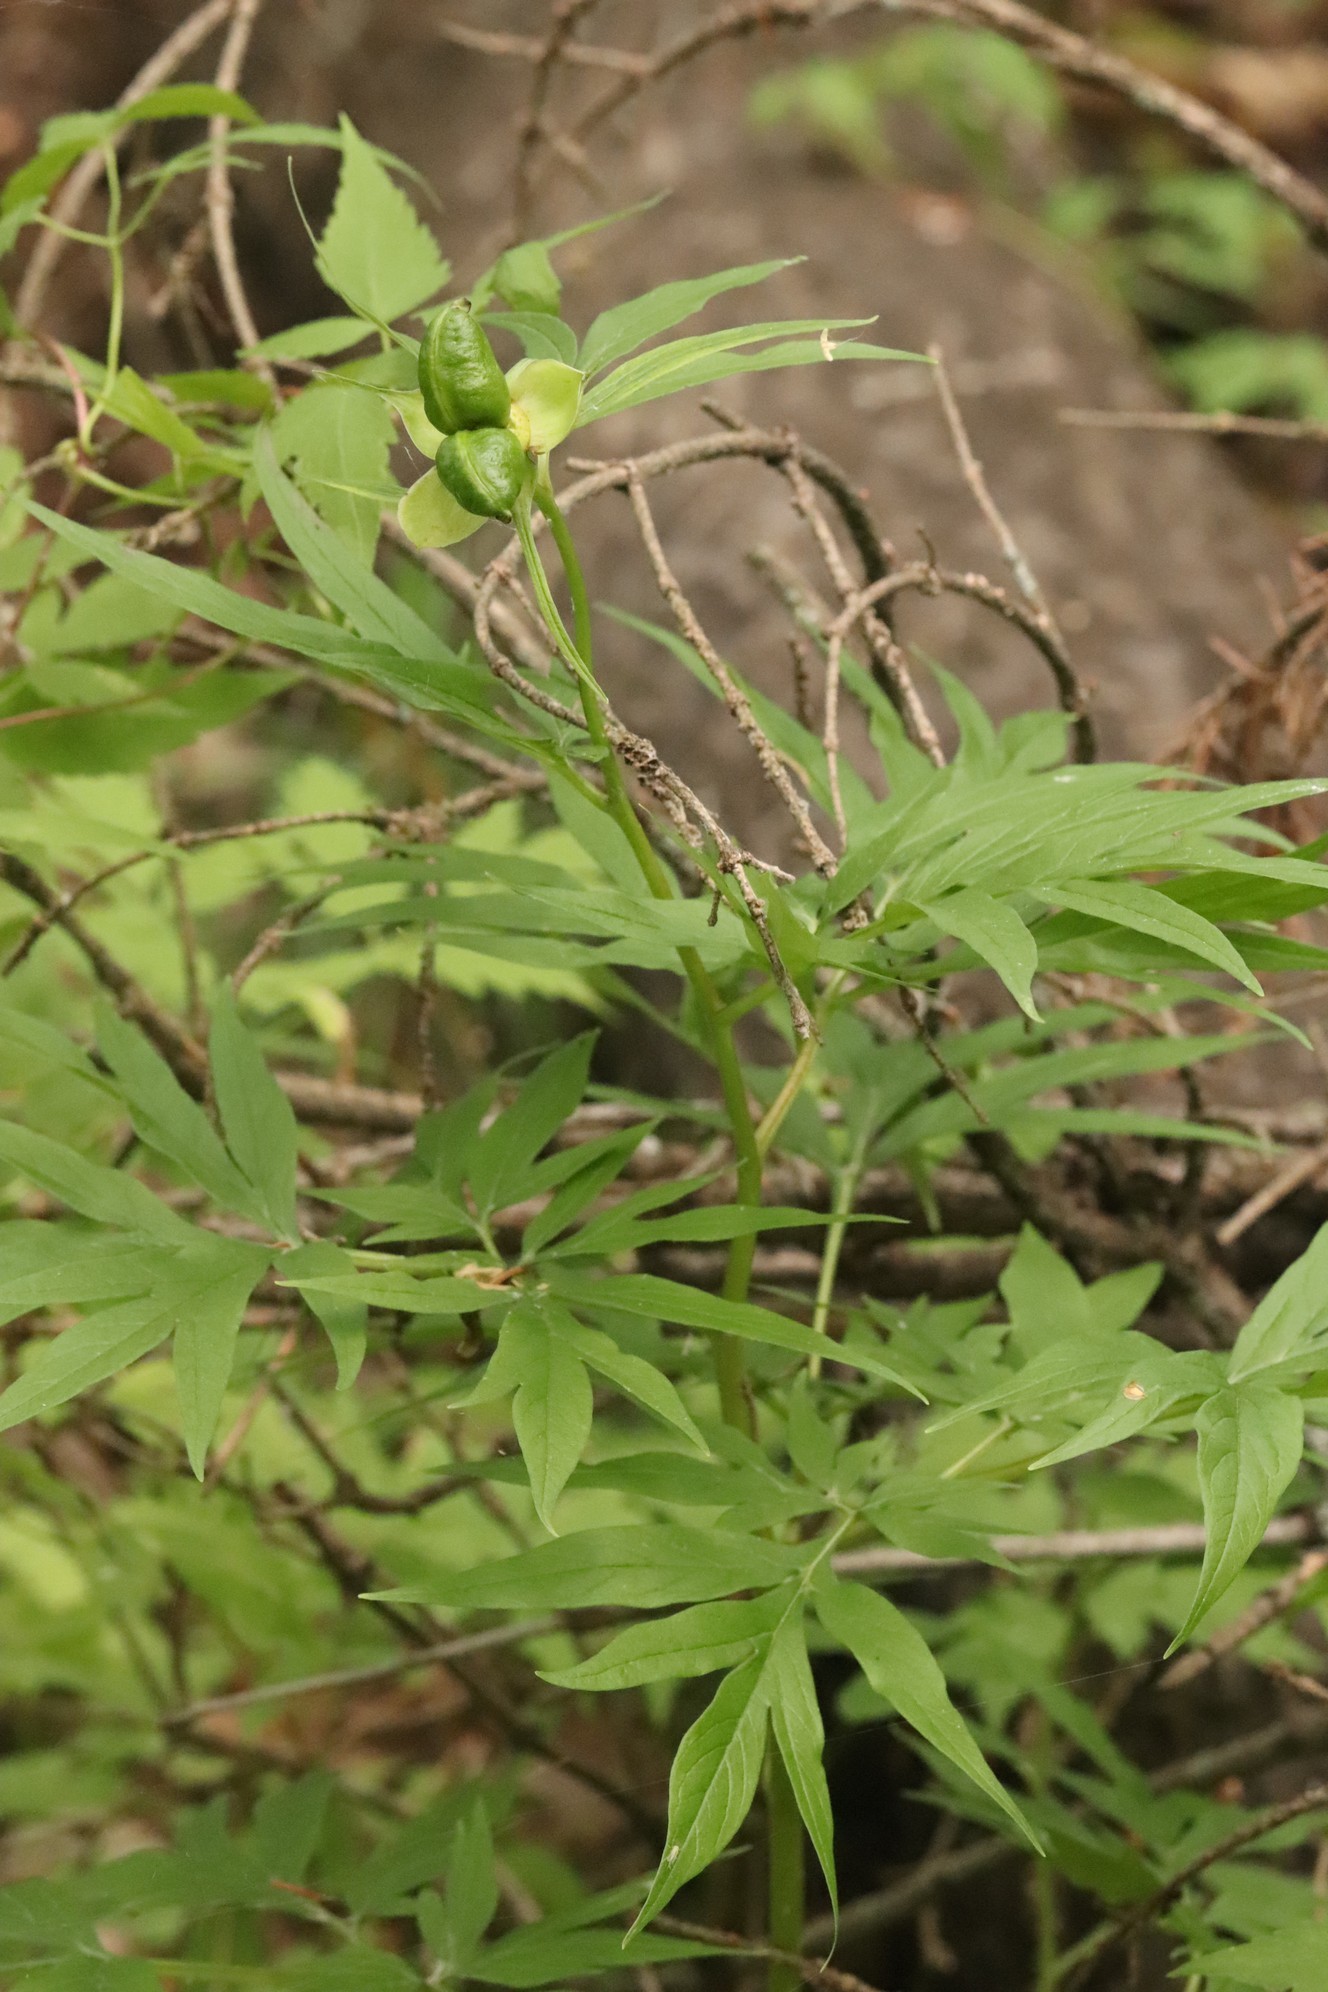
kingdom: Plantae
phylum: Tracheophyta
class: Magnoliopsida
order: Saxifragales
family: Paeoniaceae
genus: Paeonia
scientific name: Paeonia anomala
